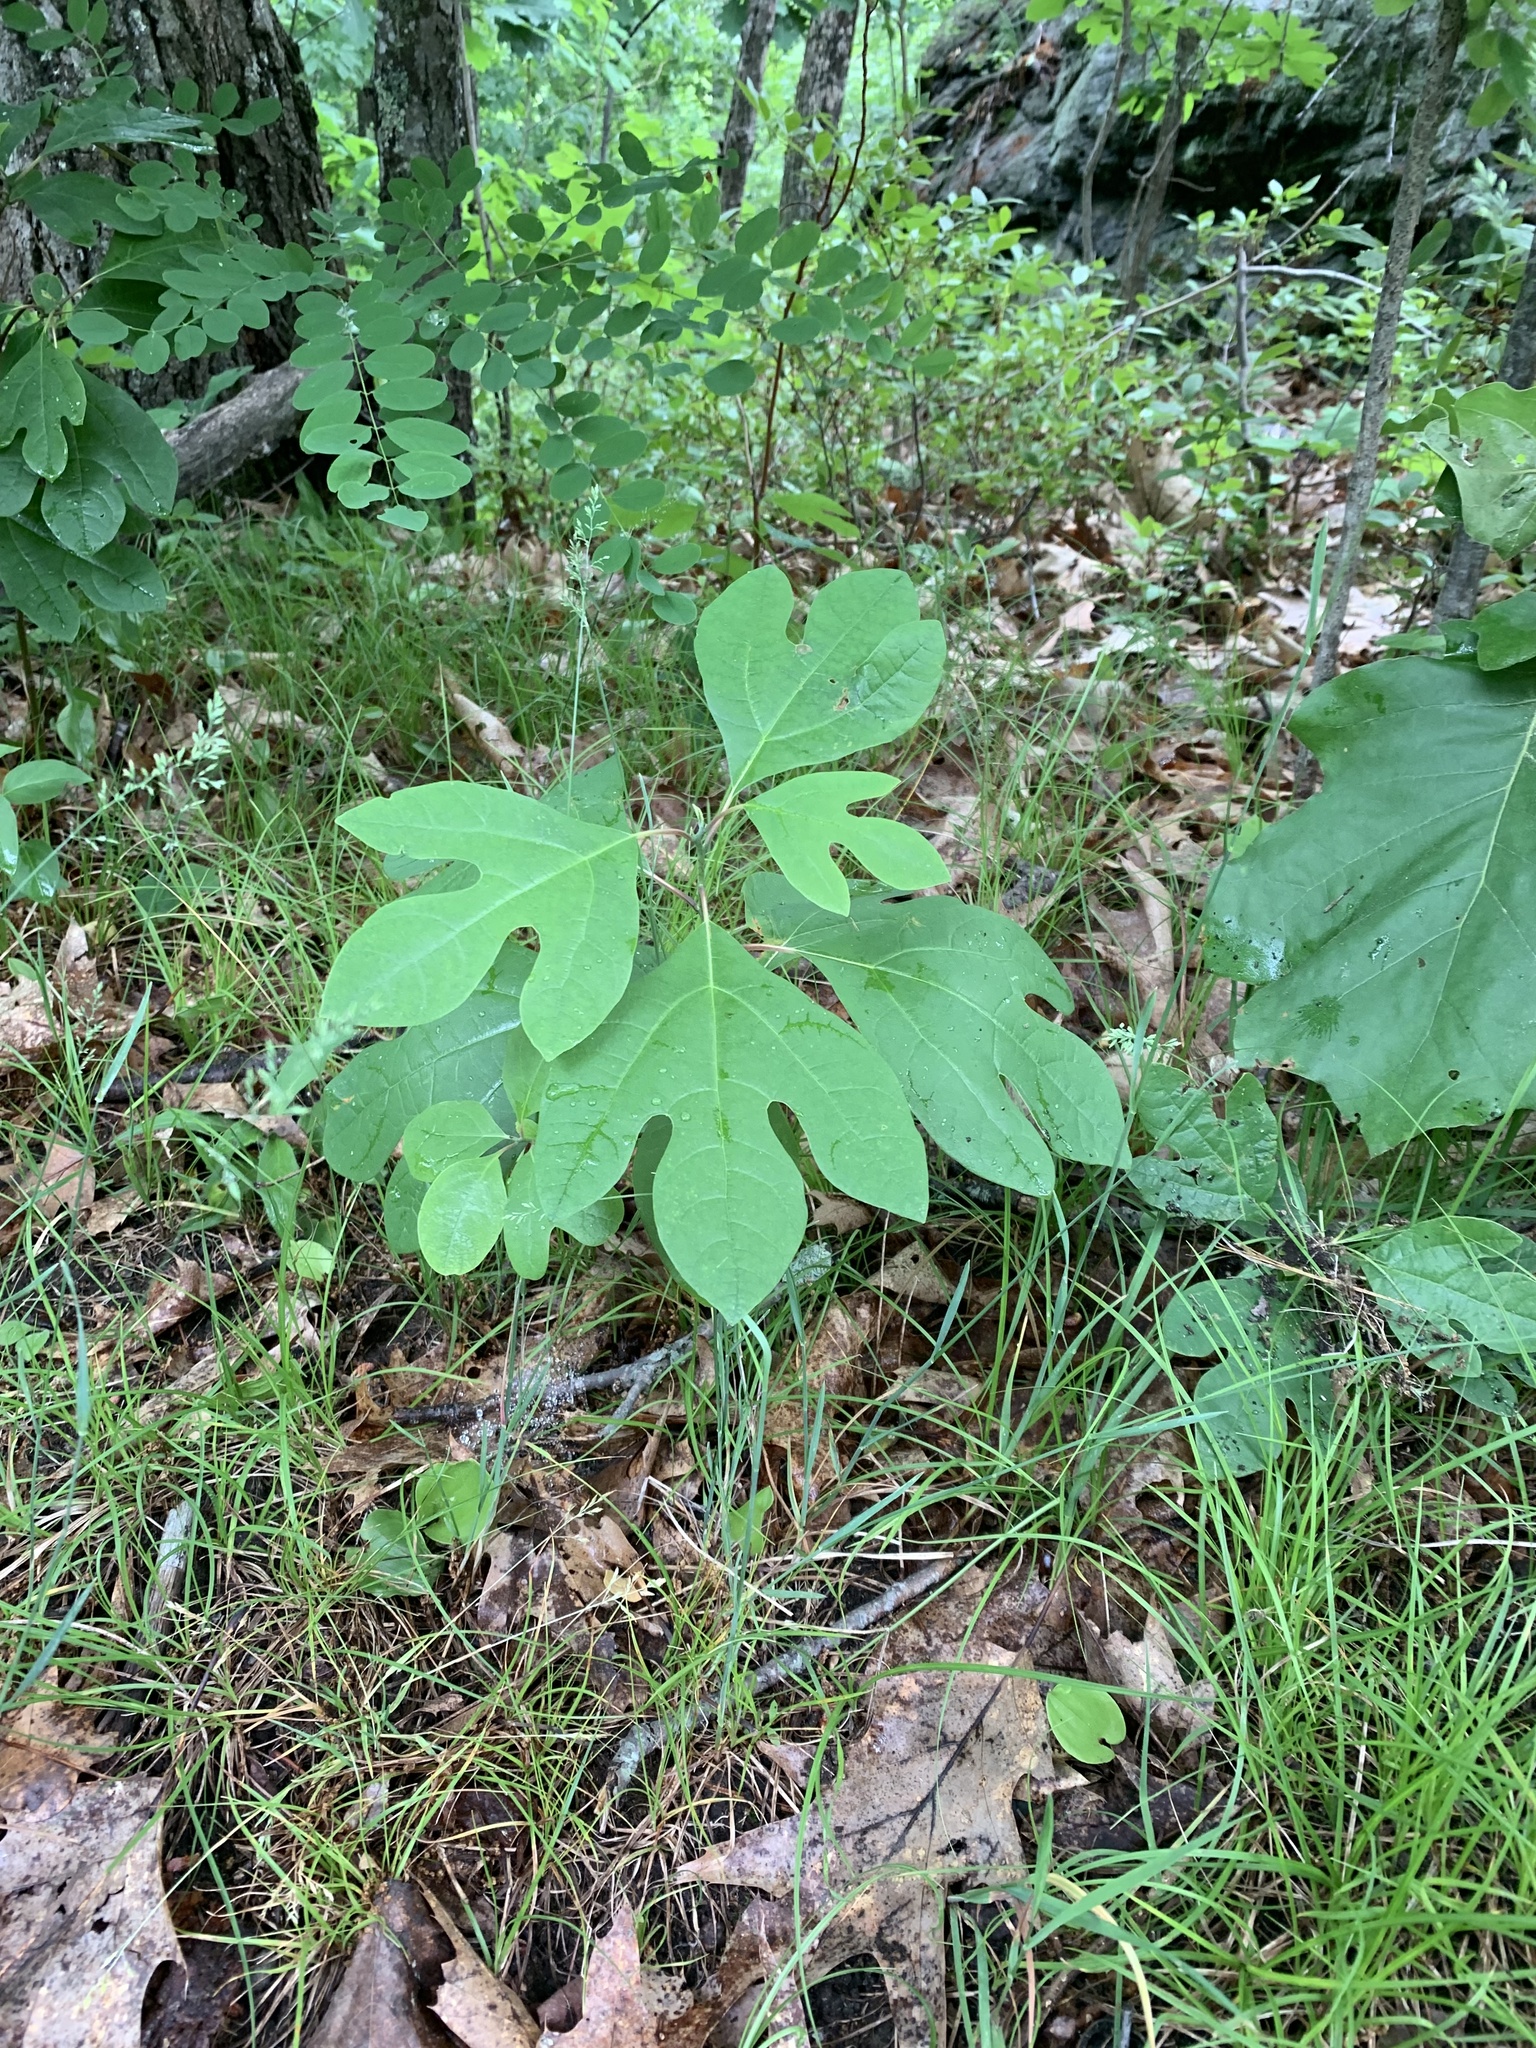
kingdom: Plantae
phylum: Tracheophyta
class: Magnoliopsida
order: Laurales
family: Lauraceae
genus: Sassafras
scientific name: Sassafras albidum
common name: Sassafras
